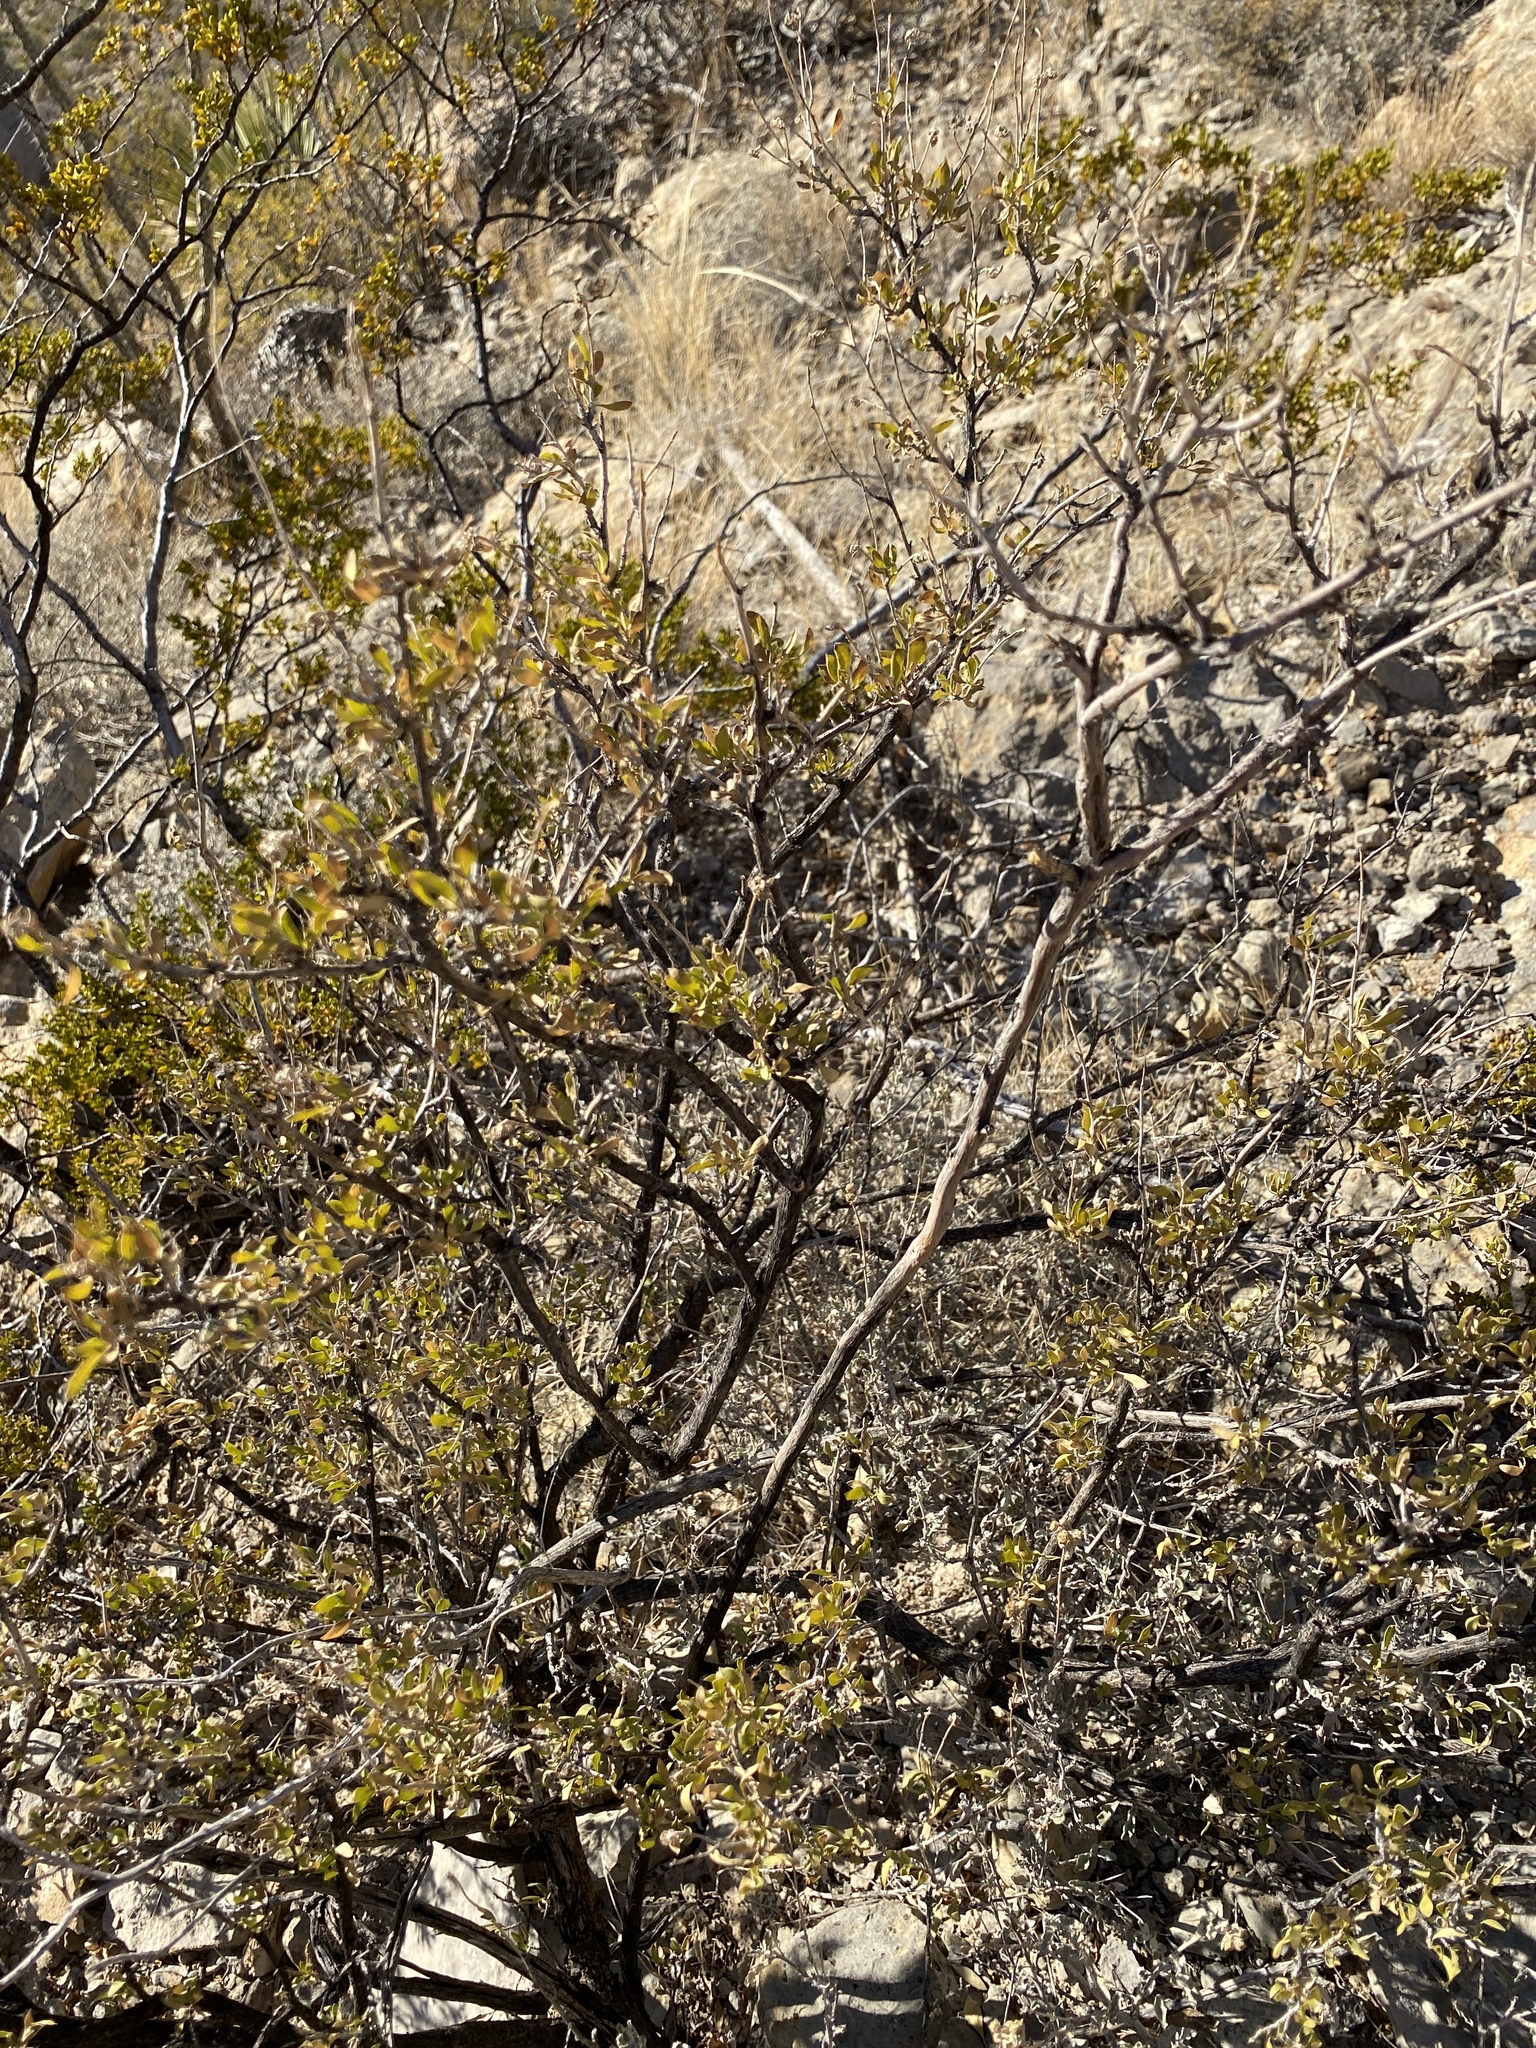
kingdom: Plantae
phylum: Tracheophyta
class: Magnoliopsida
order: Asterales
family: Asteraceae
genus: Flourensia
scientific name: Flourensia cernua
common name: Varnishbush
